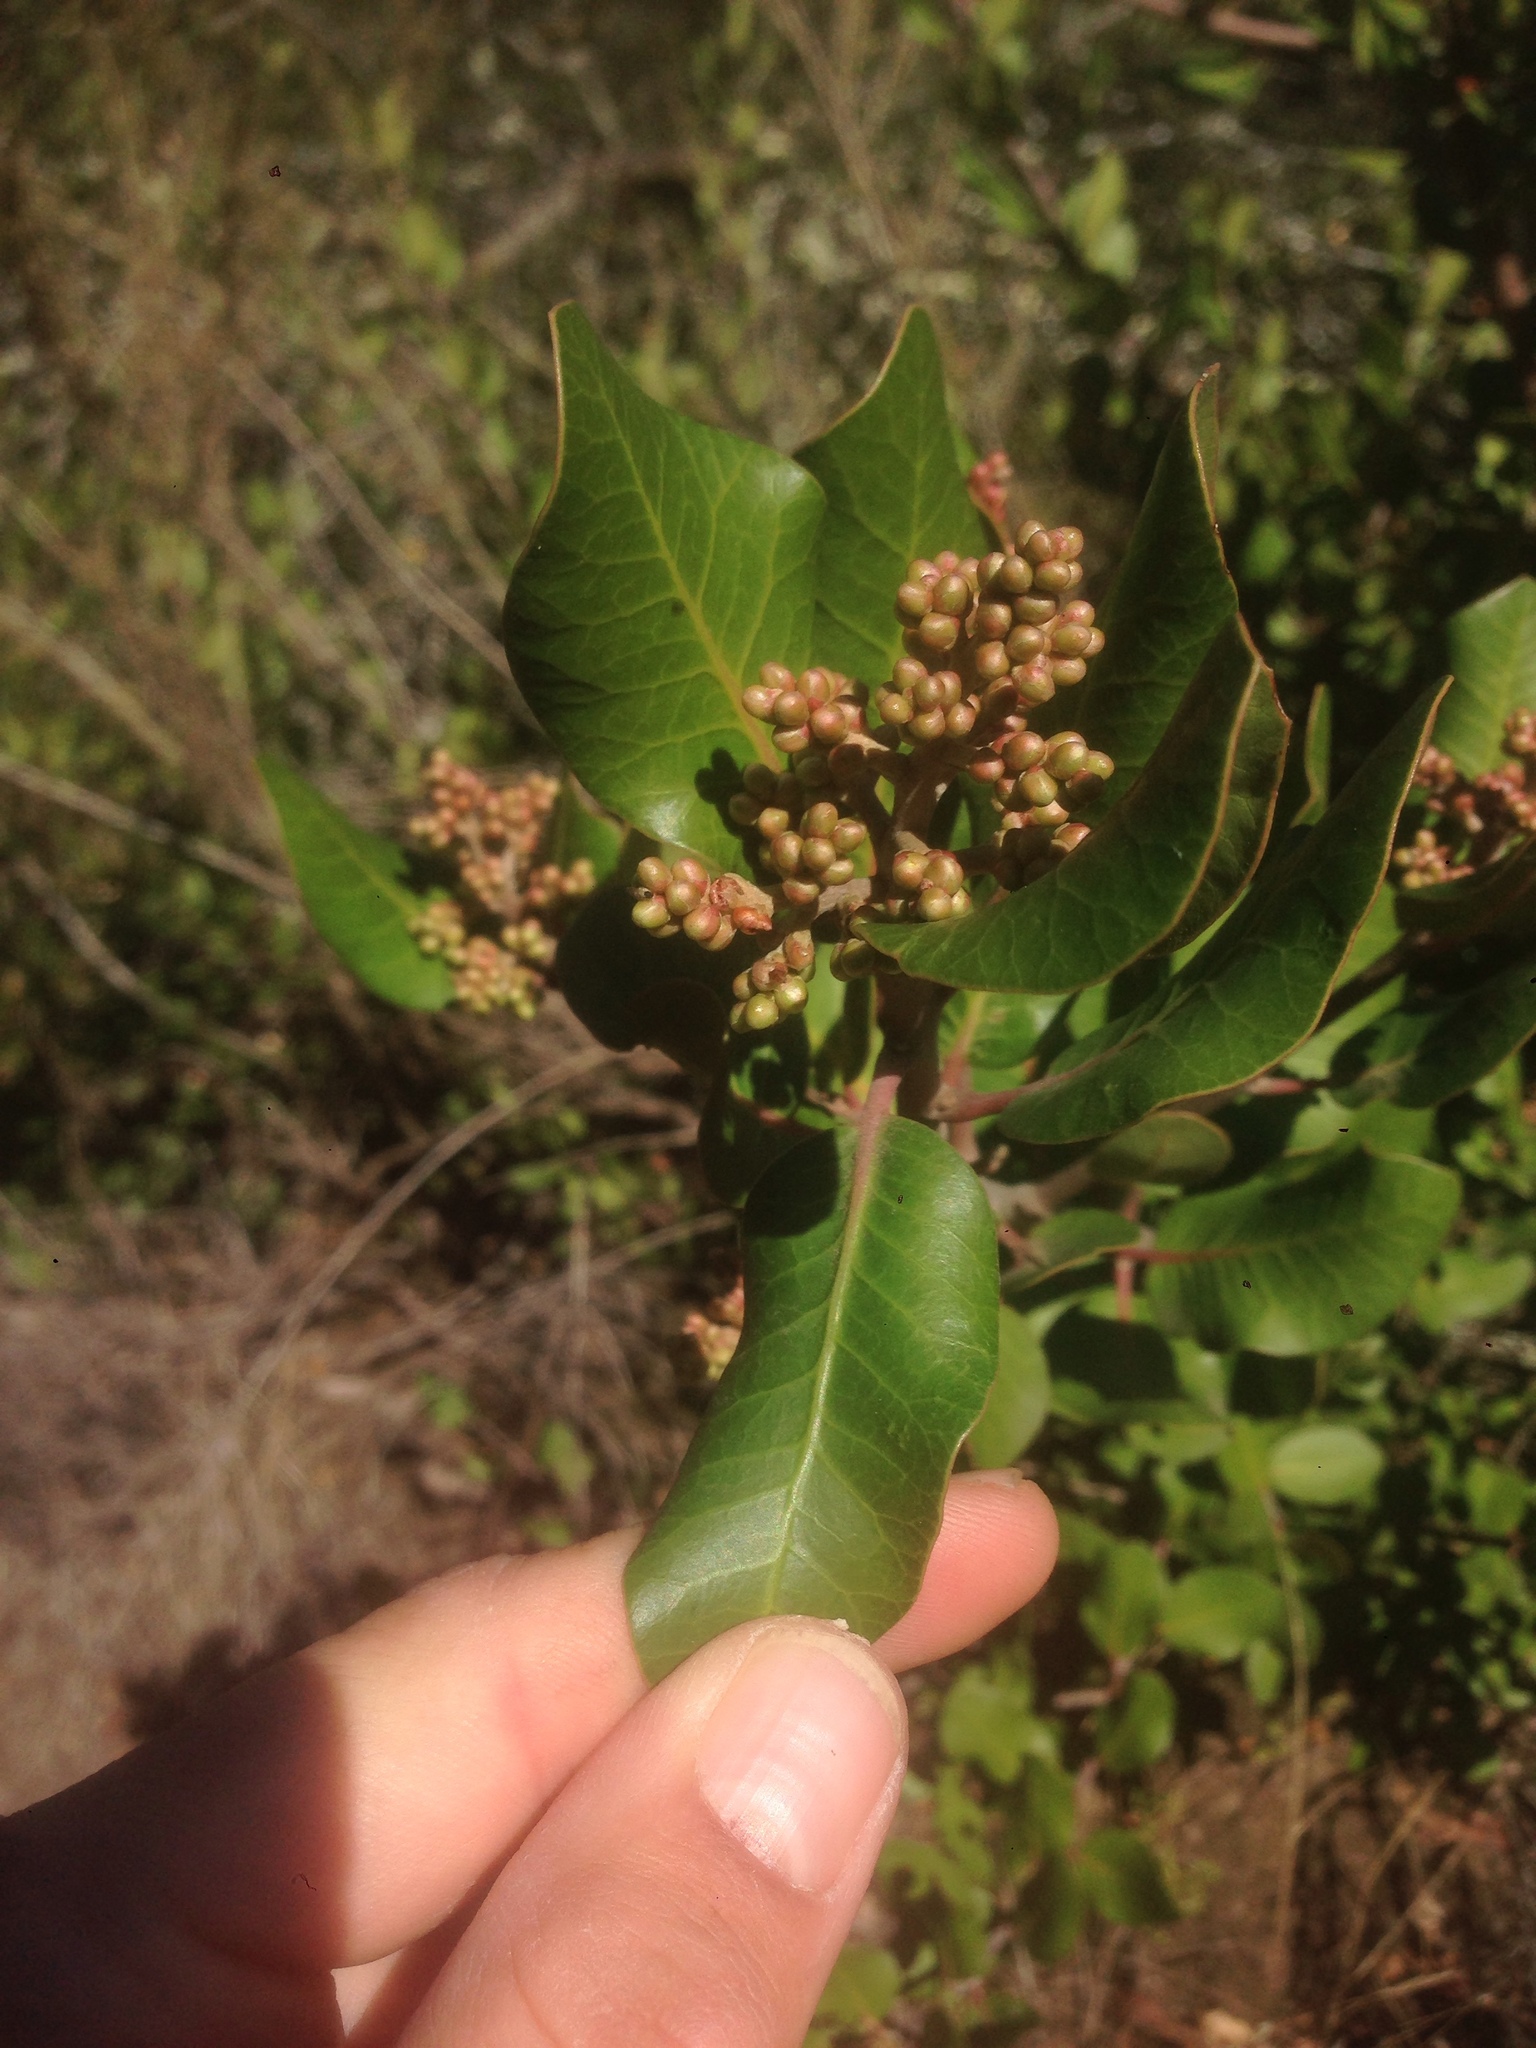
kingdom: Plantae
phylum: Tracheophyta
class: Magnoliopsida
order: Sapindales
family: Anacardiaceae
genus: Rhus
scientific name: Rhus integrifolia
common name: Lemonade sumac
